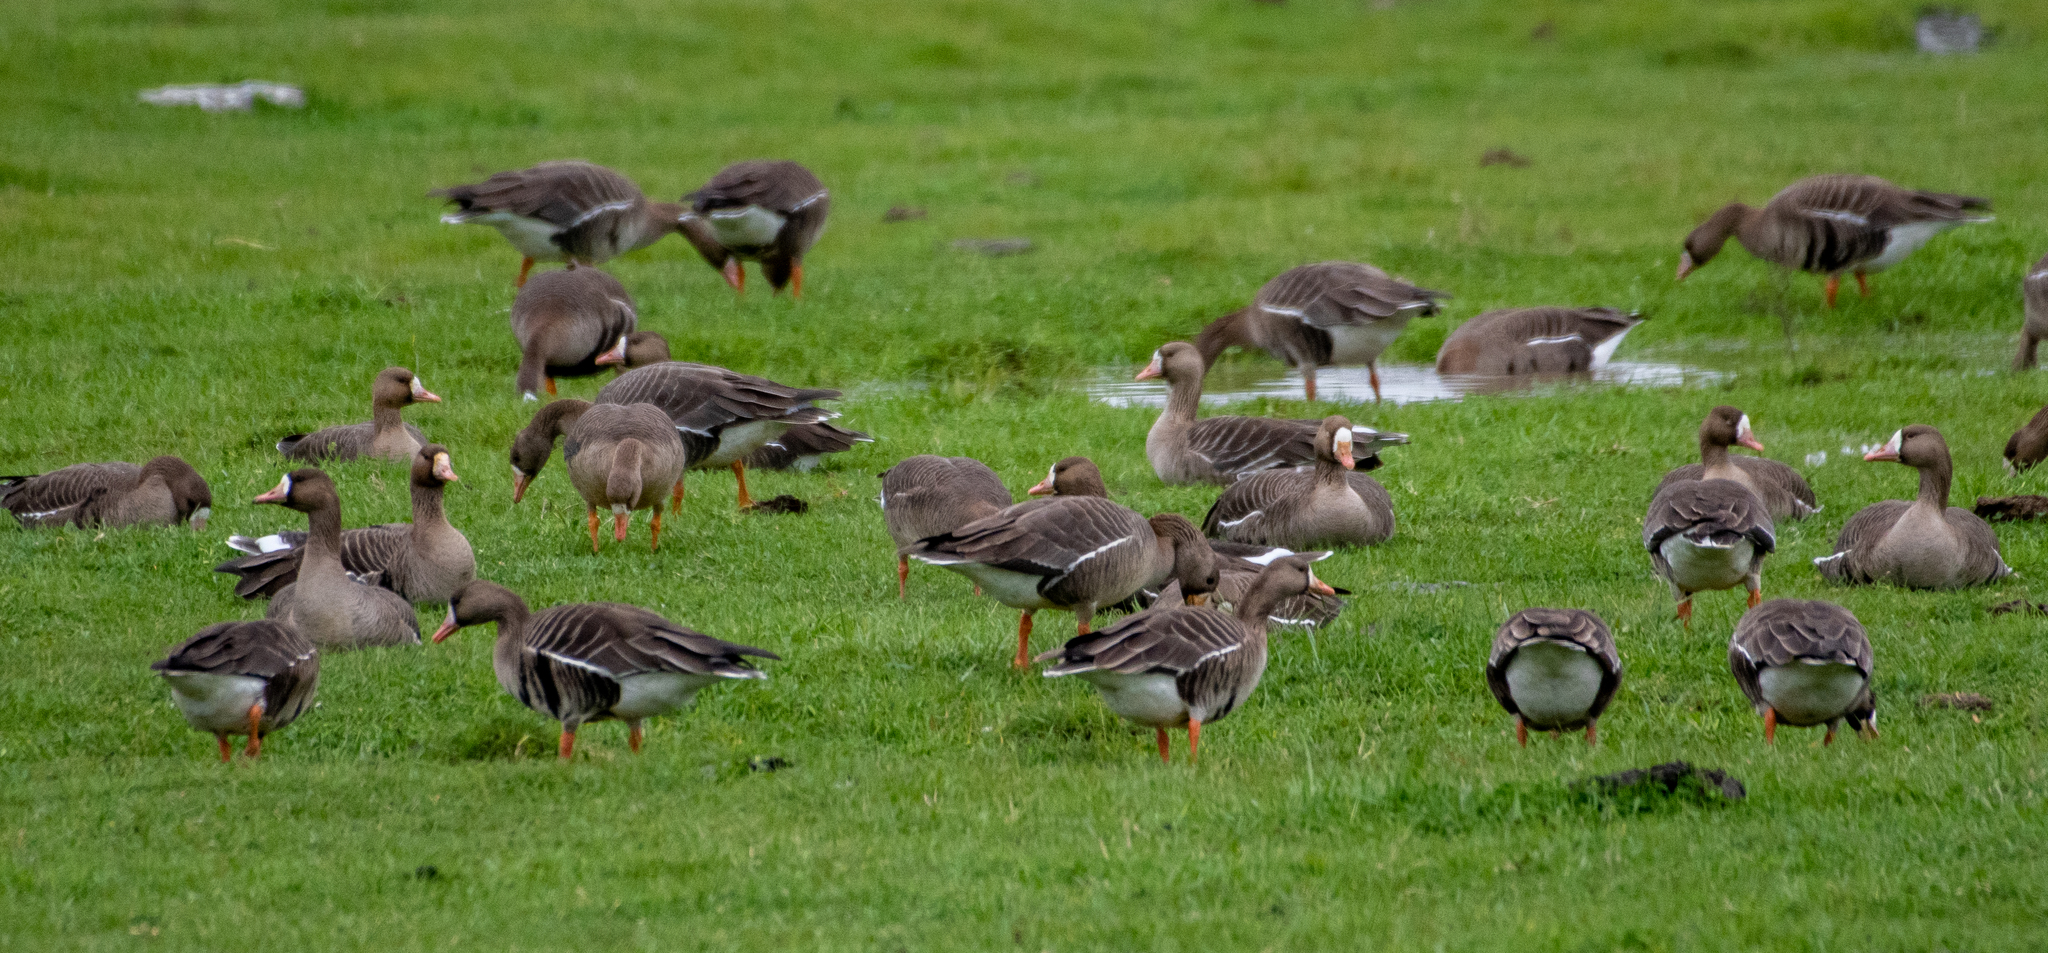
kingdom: Animalia
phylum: Chordata
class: Aves
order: Anseriformes
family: Anatidae
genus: Anser
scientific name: Anser albifrons
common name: Greater white-fronted goose
